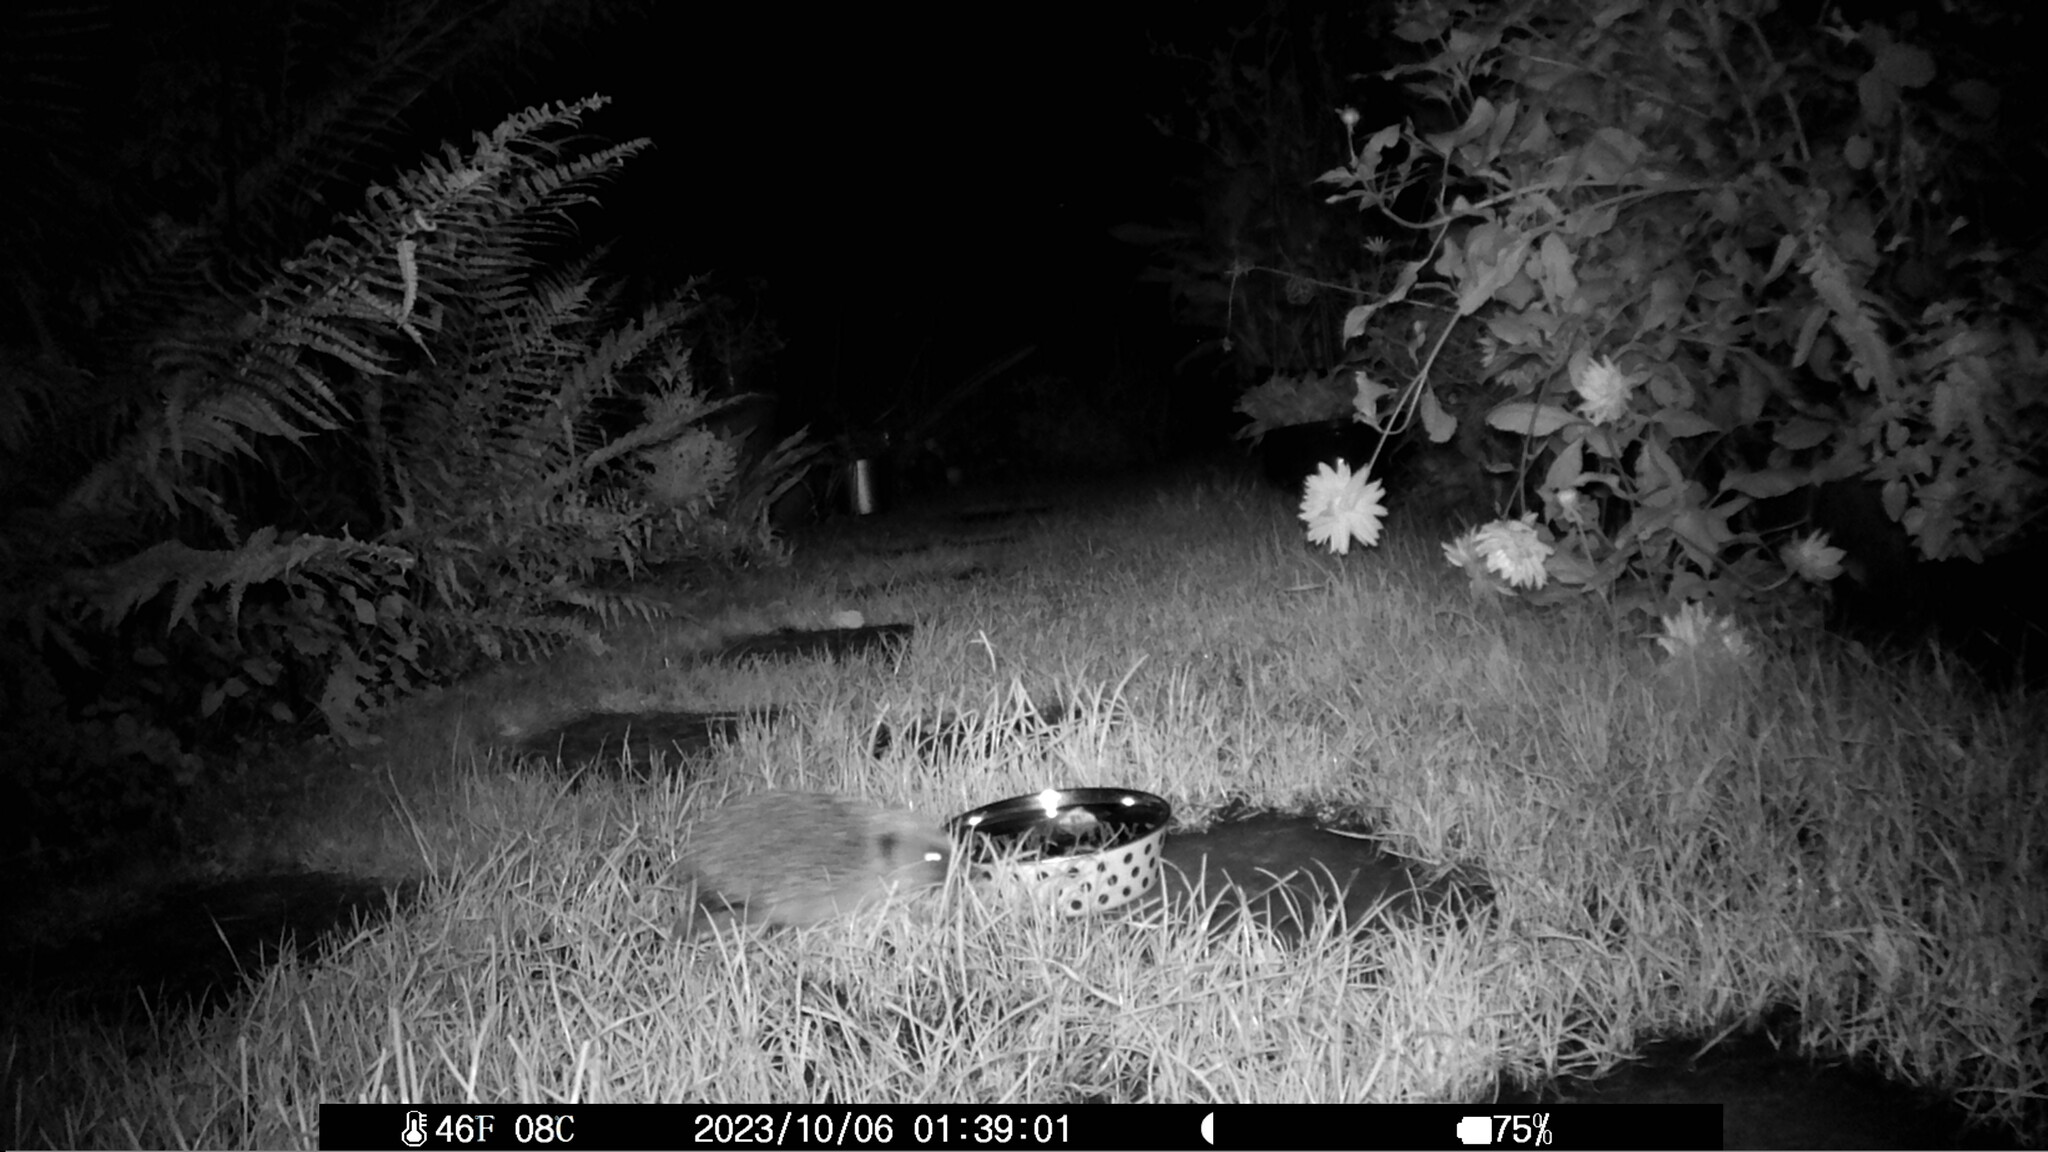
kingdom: Animalia
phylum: Chordata
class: Mammalia
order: Erinaceomorpha
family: Erinaceidae
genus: Erinaceus
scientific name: Erinaceus europaeus
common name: West european hedgehog
